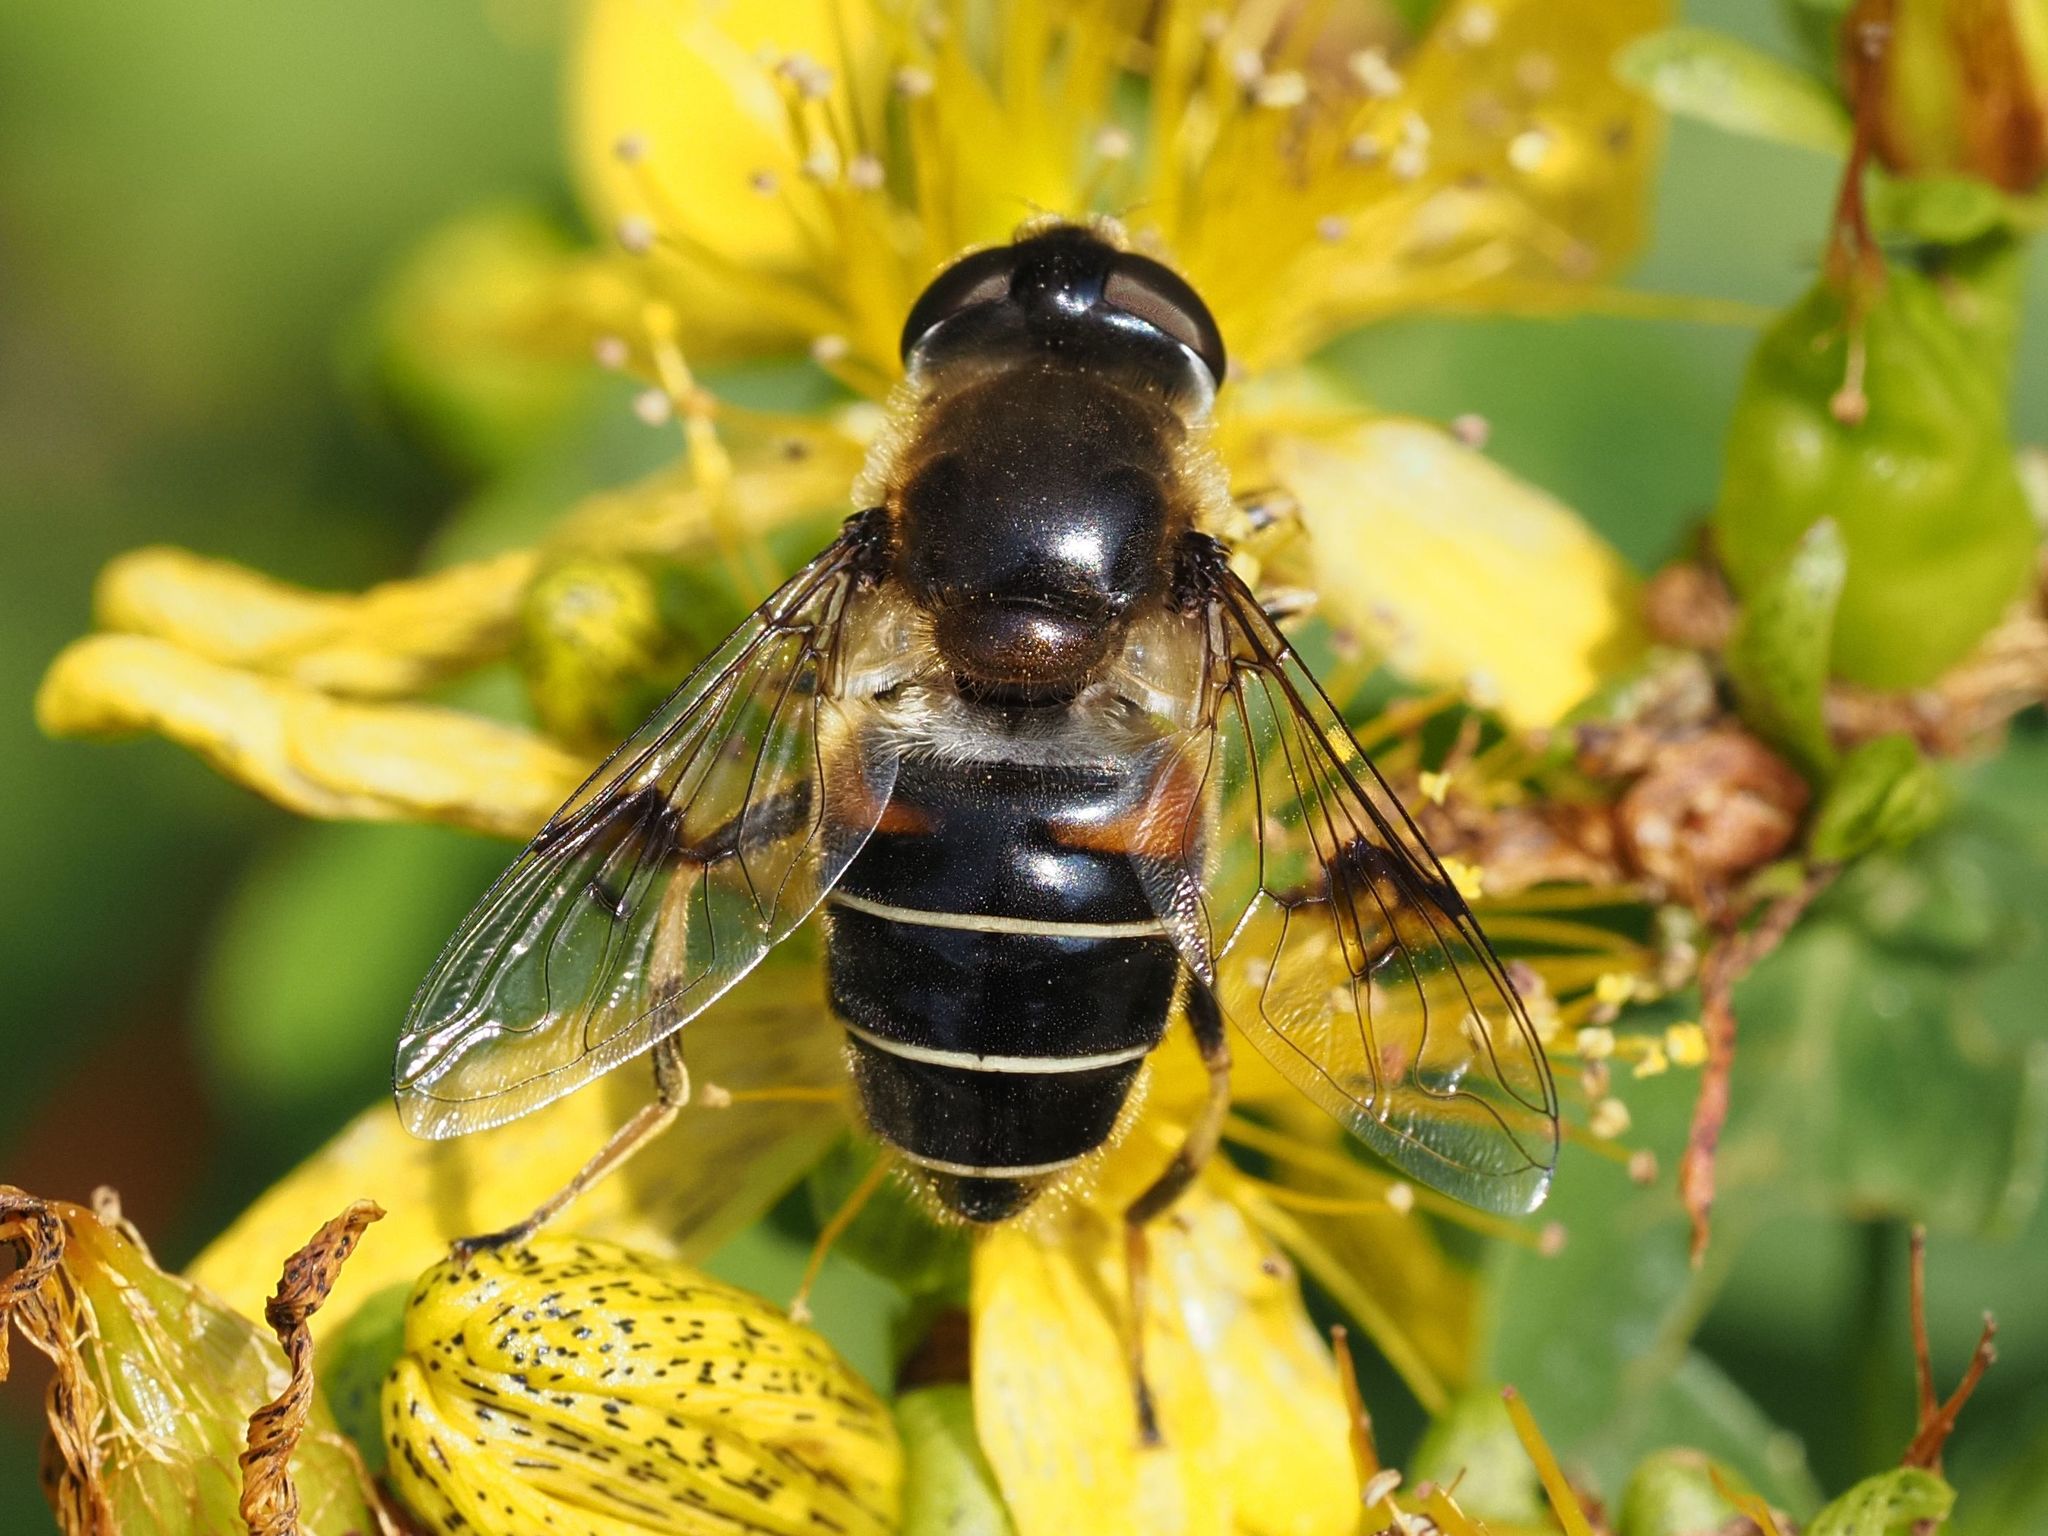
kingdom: Animalia
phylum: Arthropoda
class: Insecta
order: Diptera
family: Syrphidae
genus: Eristalis
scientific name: Eristalis rupium
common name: Hover fly
